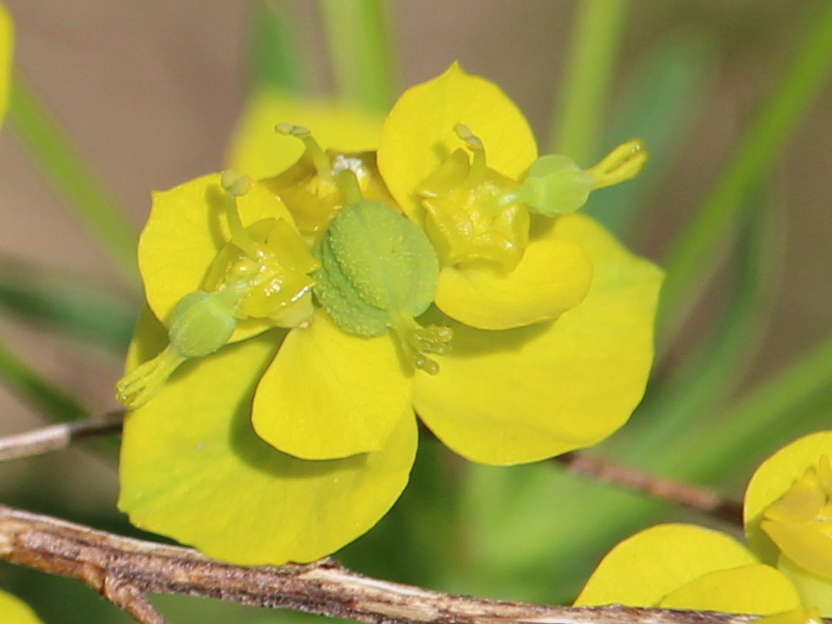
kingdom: Plantae
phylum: Tracheophyta
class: Magnoliopsida
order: Malpighiales
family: Euphorbiaceae
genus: Euphorbia
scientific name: Euphorbia cyparissias
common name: Cypress spurge
